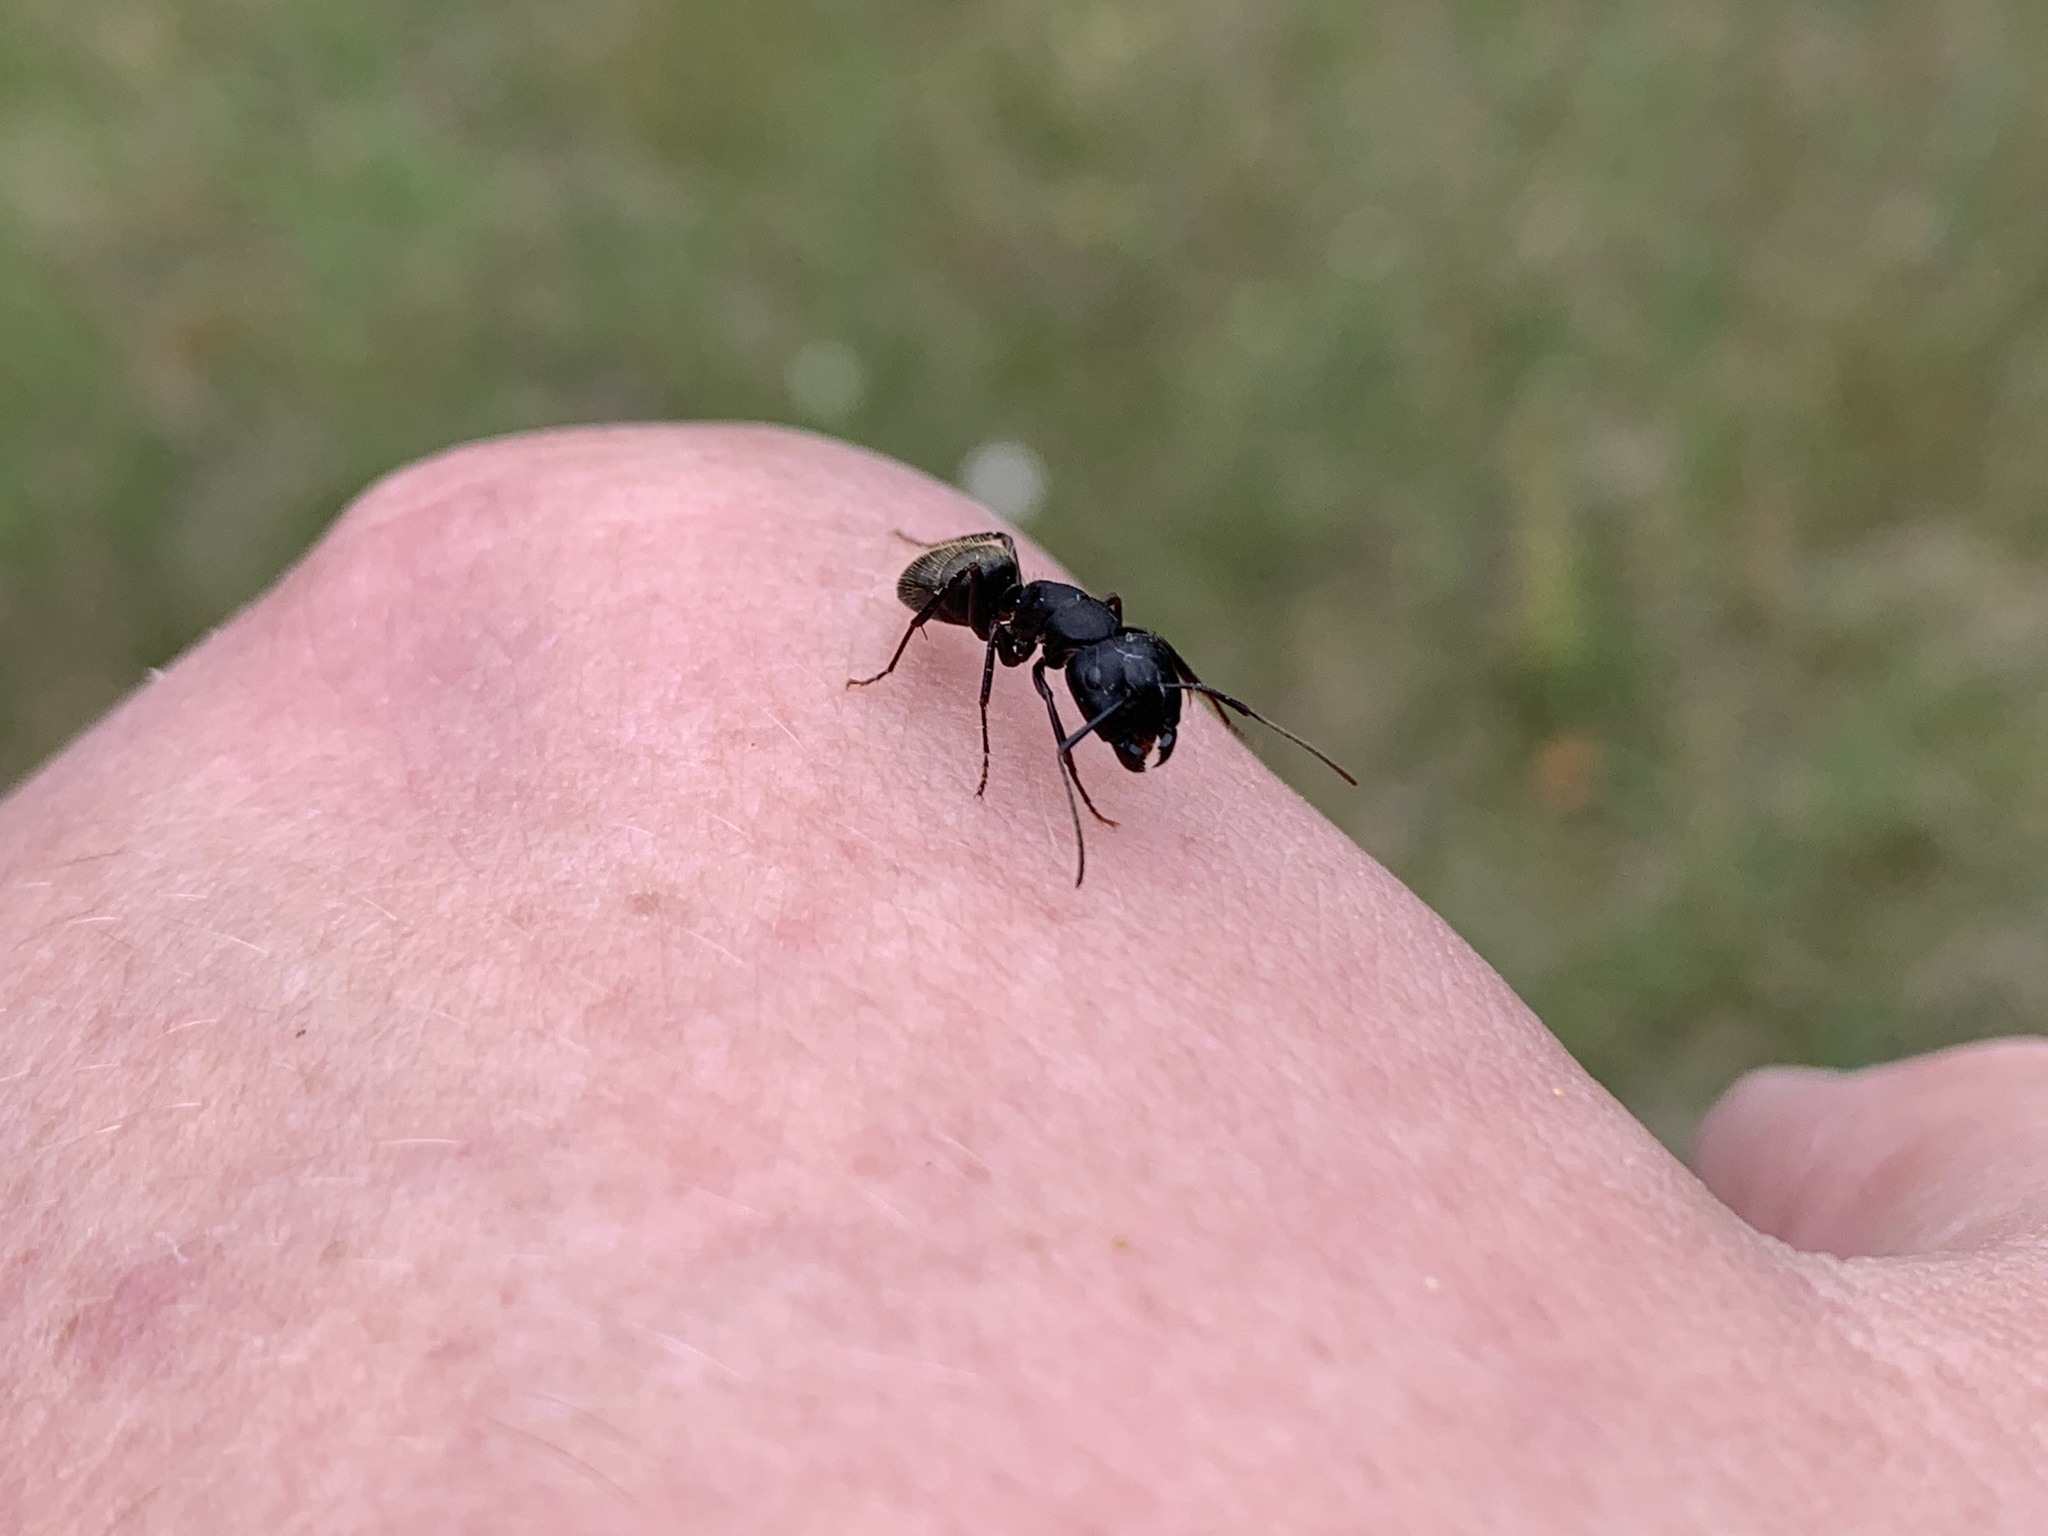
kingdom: Animalia
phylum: Arthropoda
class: Insecta
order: Hymenoptera
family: Formicidae
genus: Camponotus
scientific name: Camponotus pennsylvanicus
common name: Black carpenter ant
